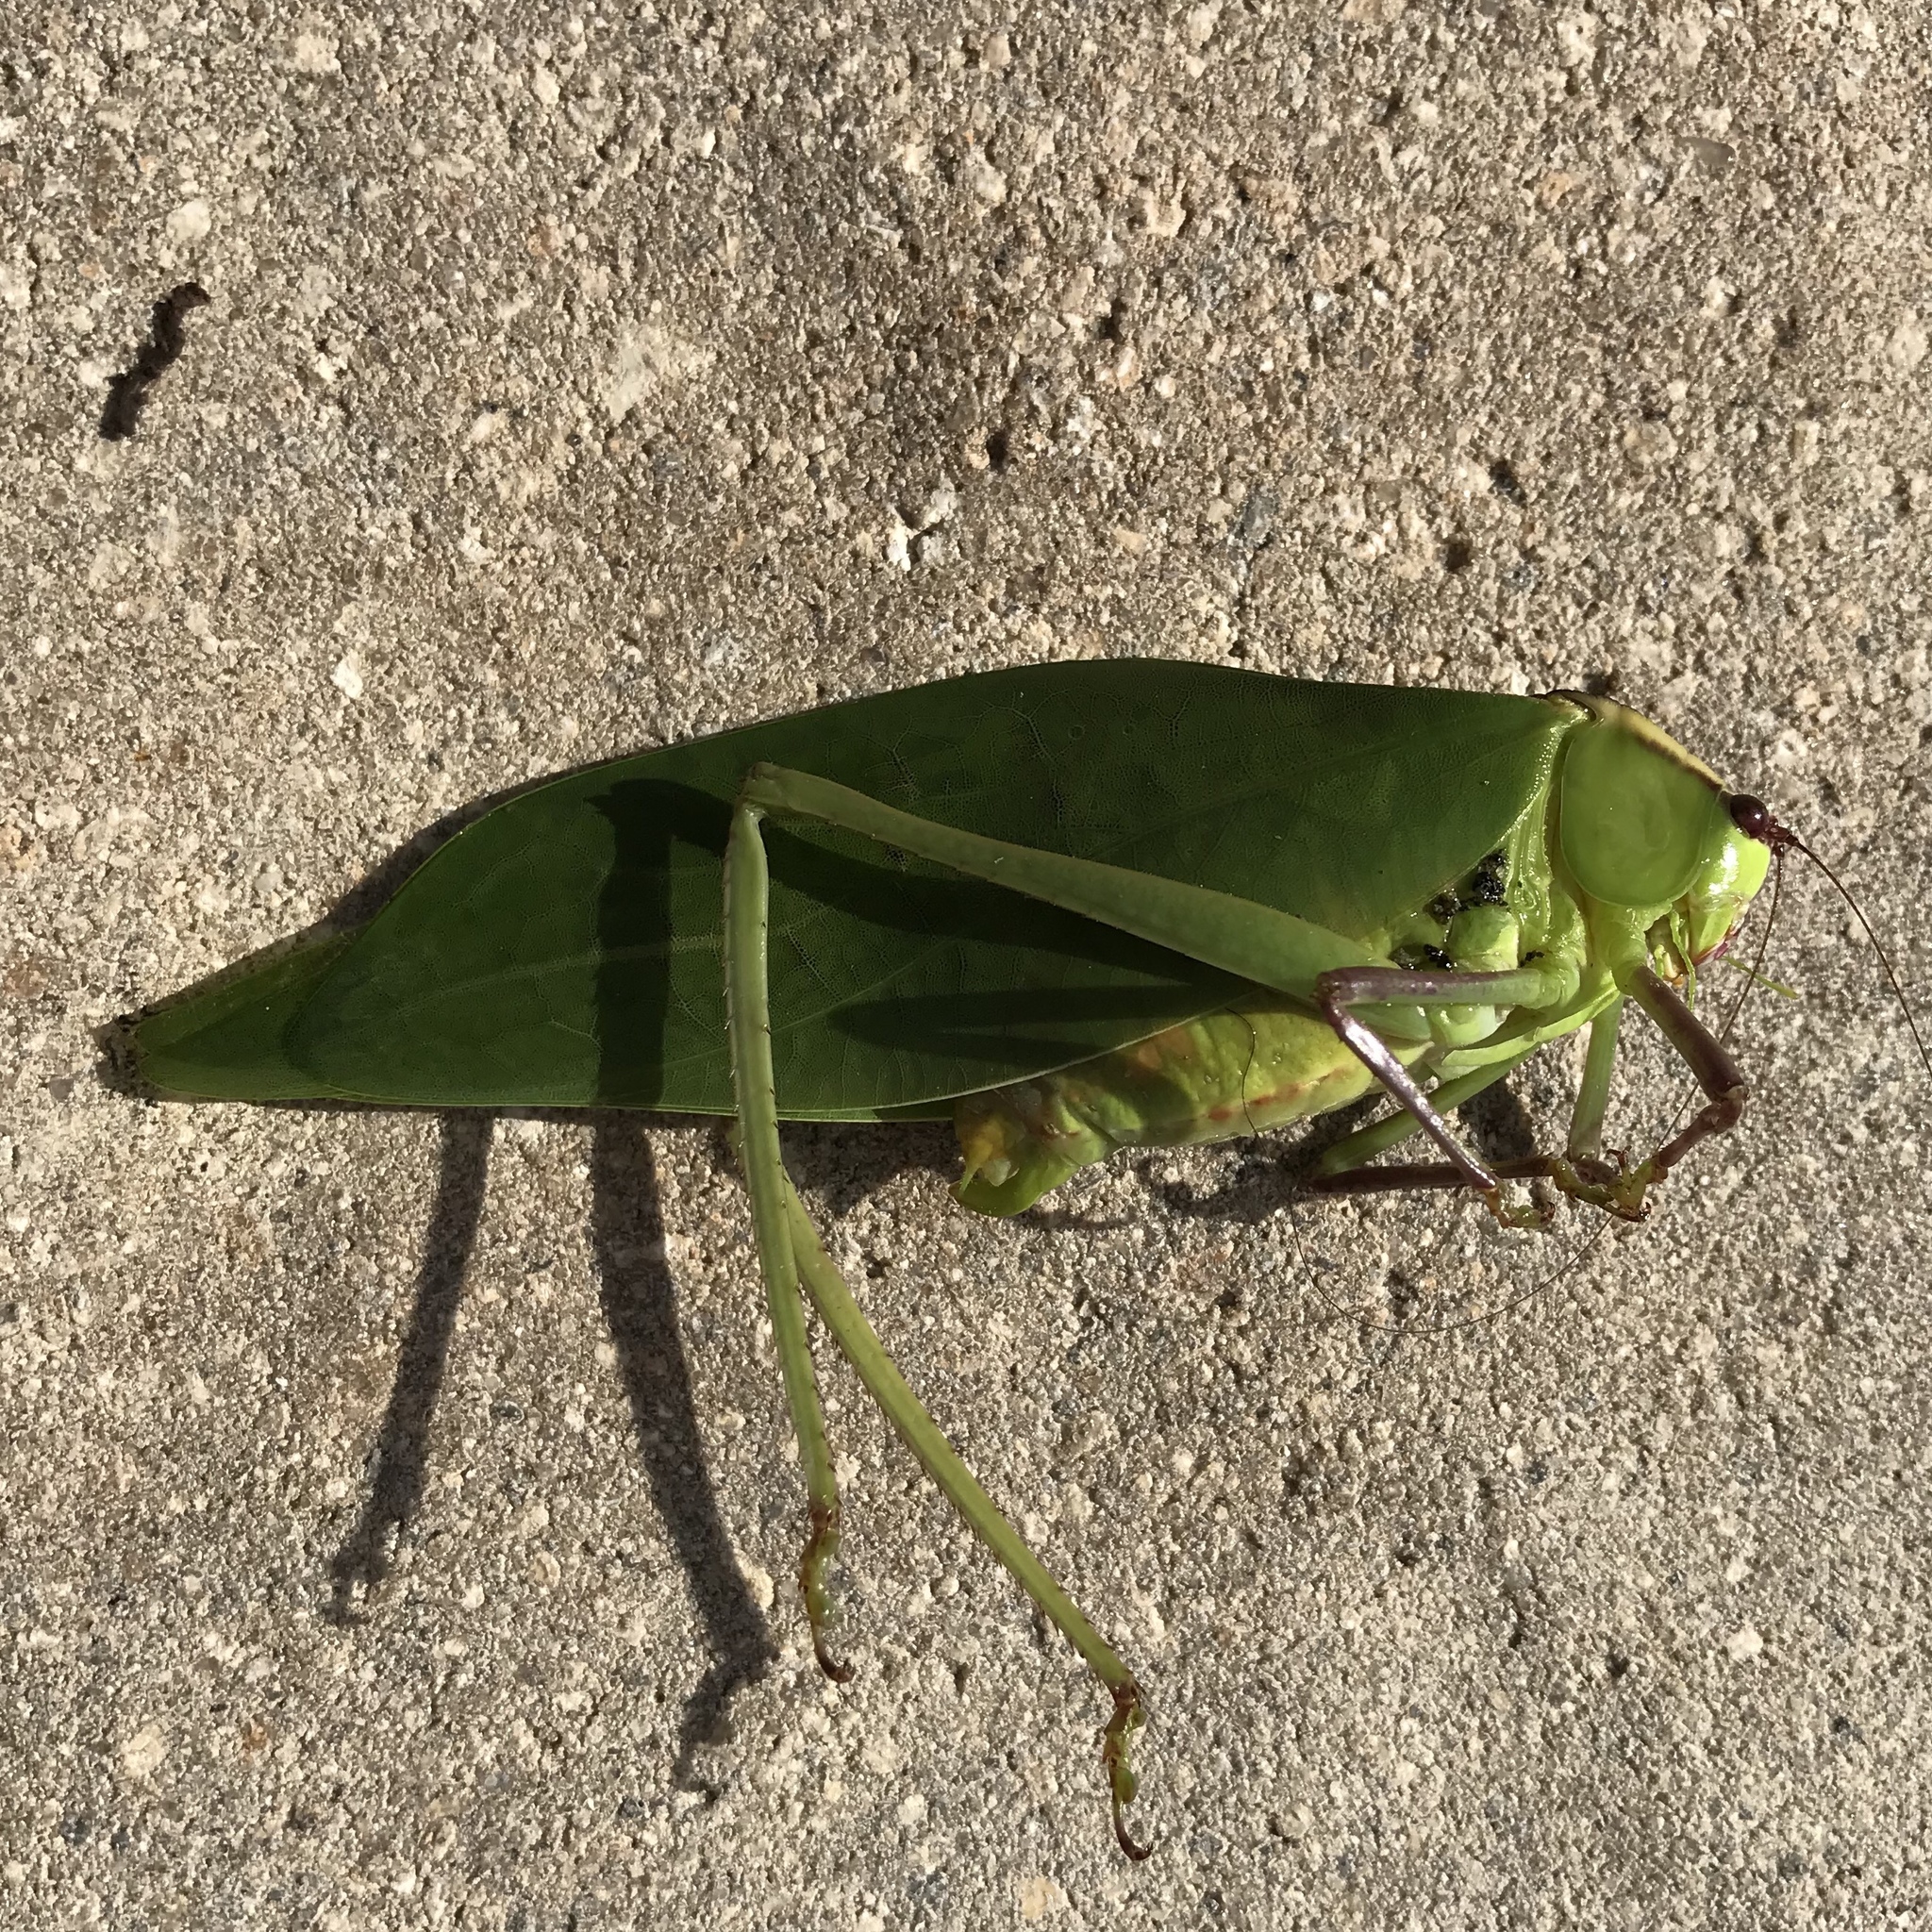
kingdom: Animalia
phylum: Arthropoda
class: Insecta
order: Orthoptera
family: Tettigoniidae
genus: Stilpnochlora
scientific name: Stilpnochlora couloniana
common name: Giant katydid
